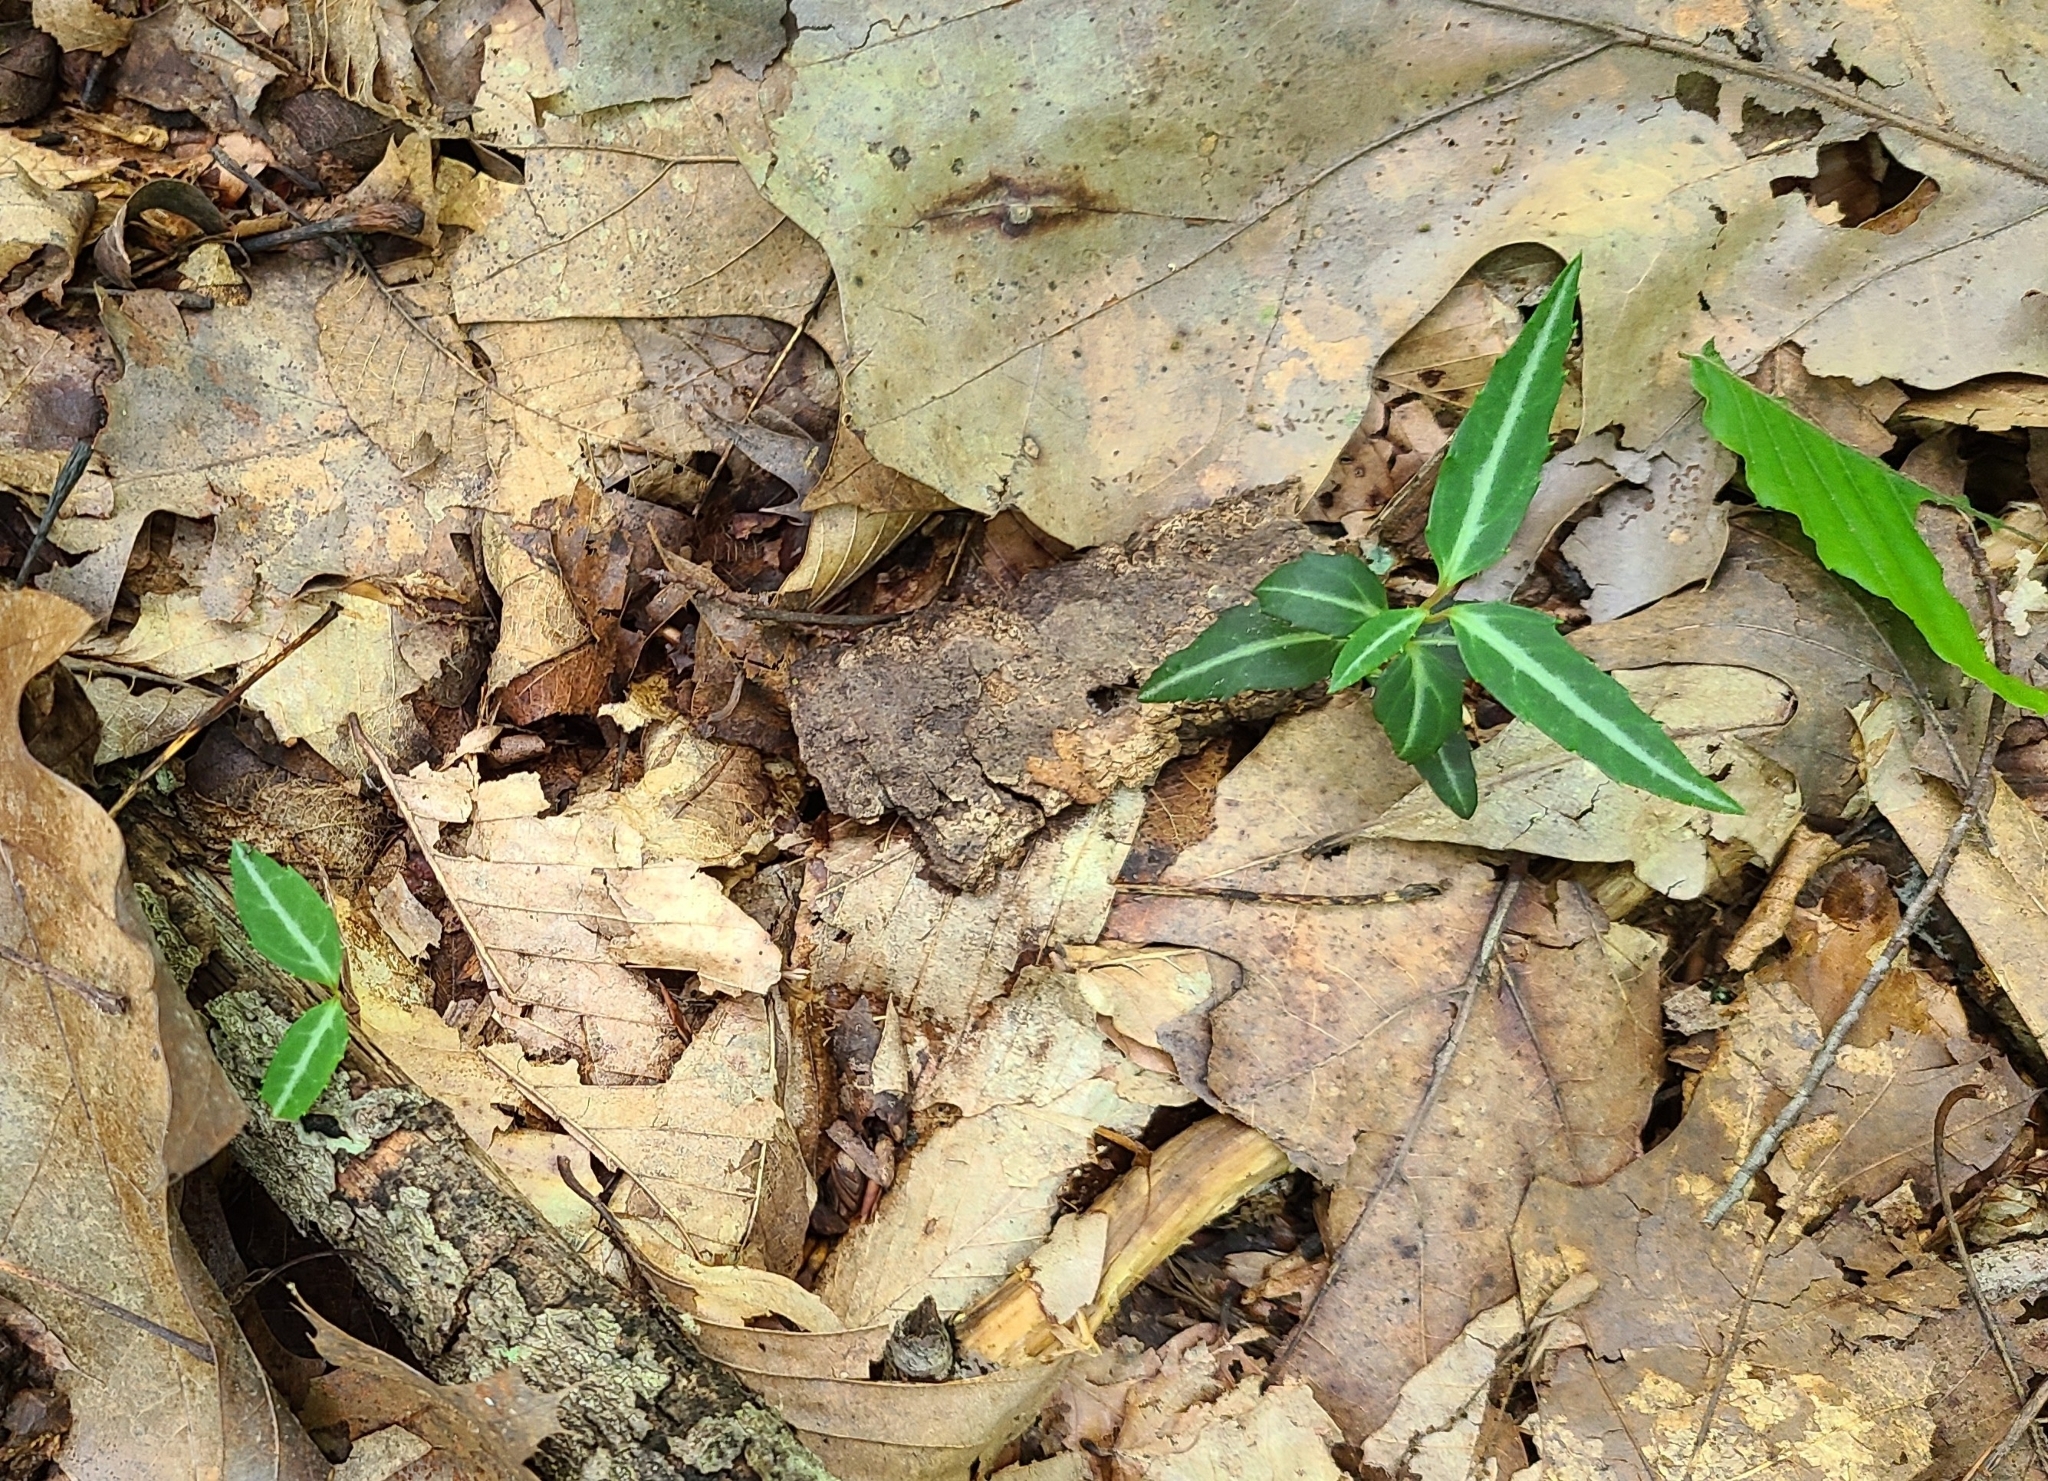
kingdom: Plantae
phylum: Tracheophyta
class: Magnoliopsida
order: Ericales
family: Ericaceae
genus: Chimaphila
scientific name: Chimaphila maculata
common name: Spotted pipsissewa
